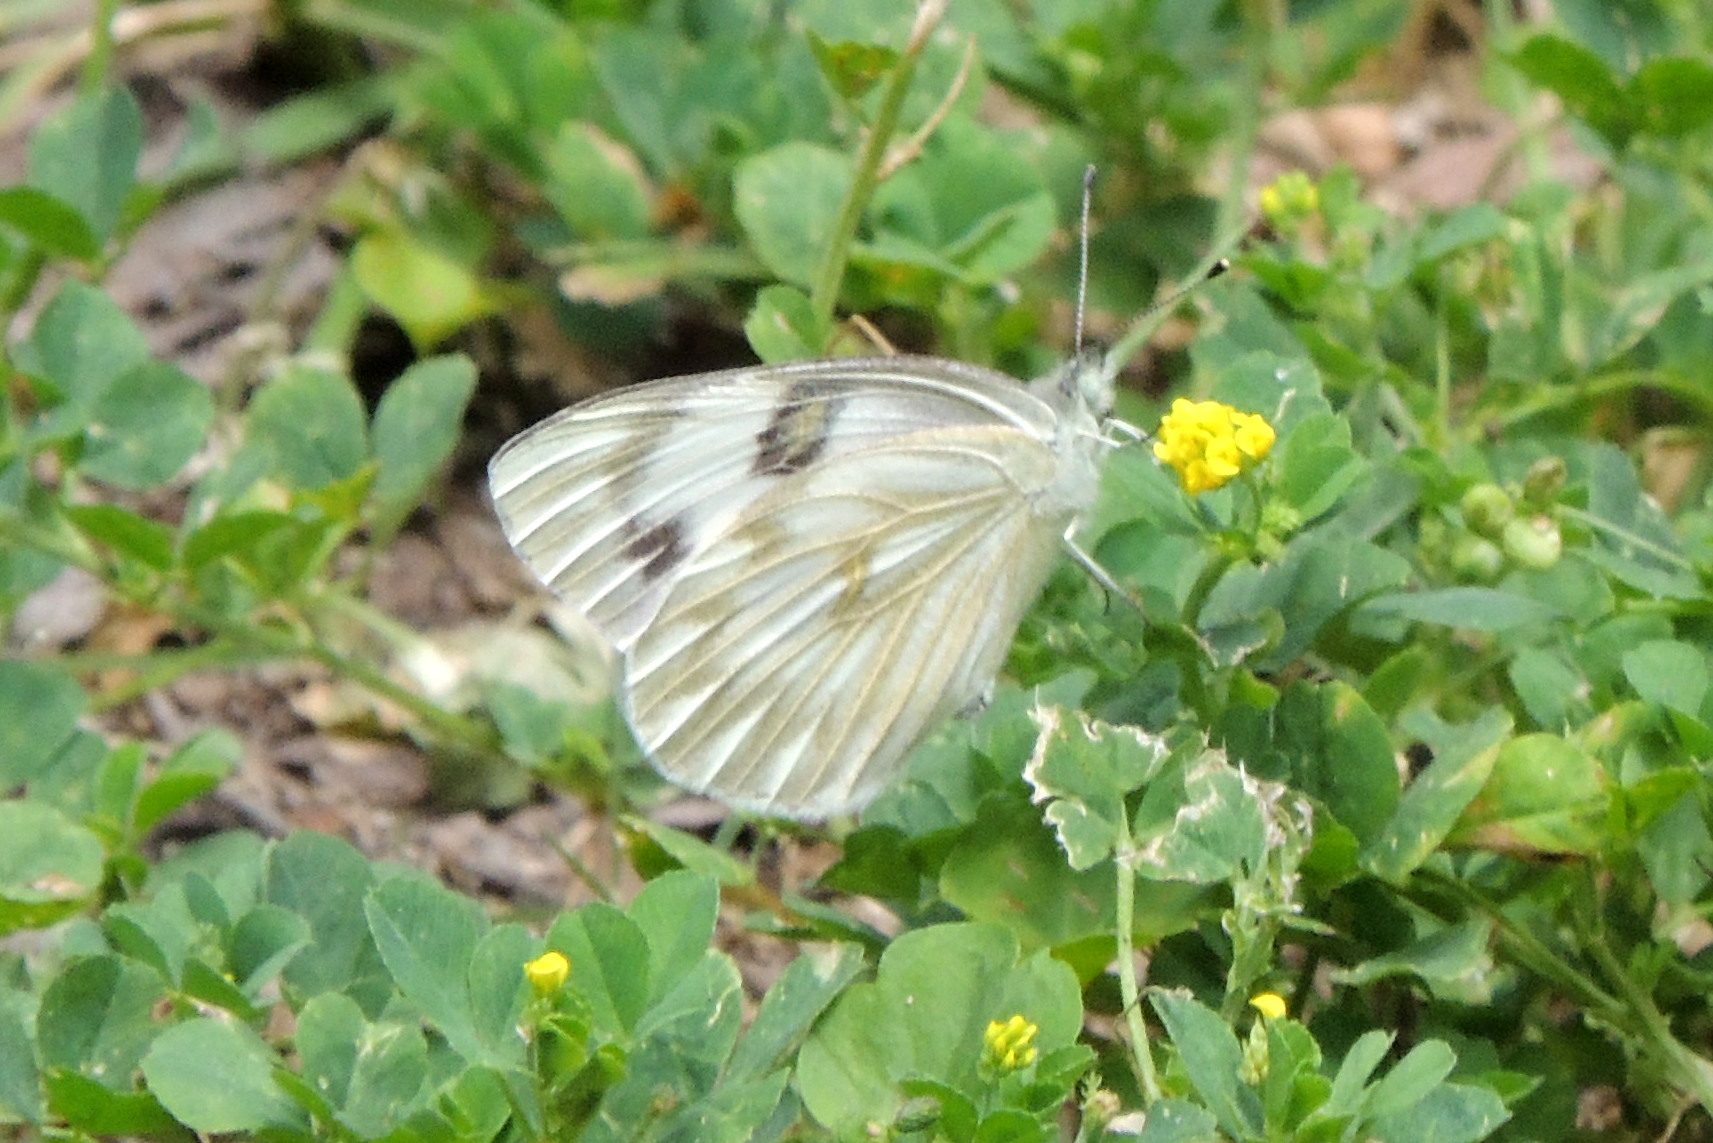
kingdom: Animalia
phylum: Arthropoda
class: Insecta
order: Lepidoptera
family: Pieridae
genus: Pontia
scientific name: Pontia protodice
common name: Checkered white
